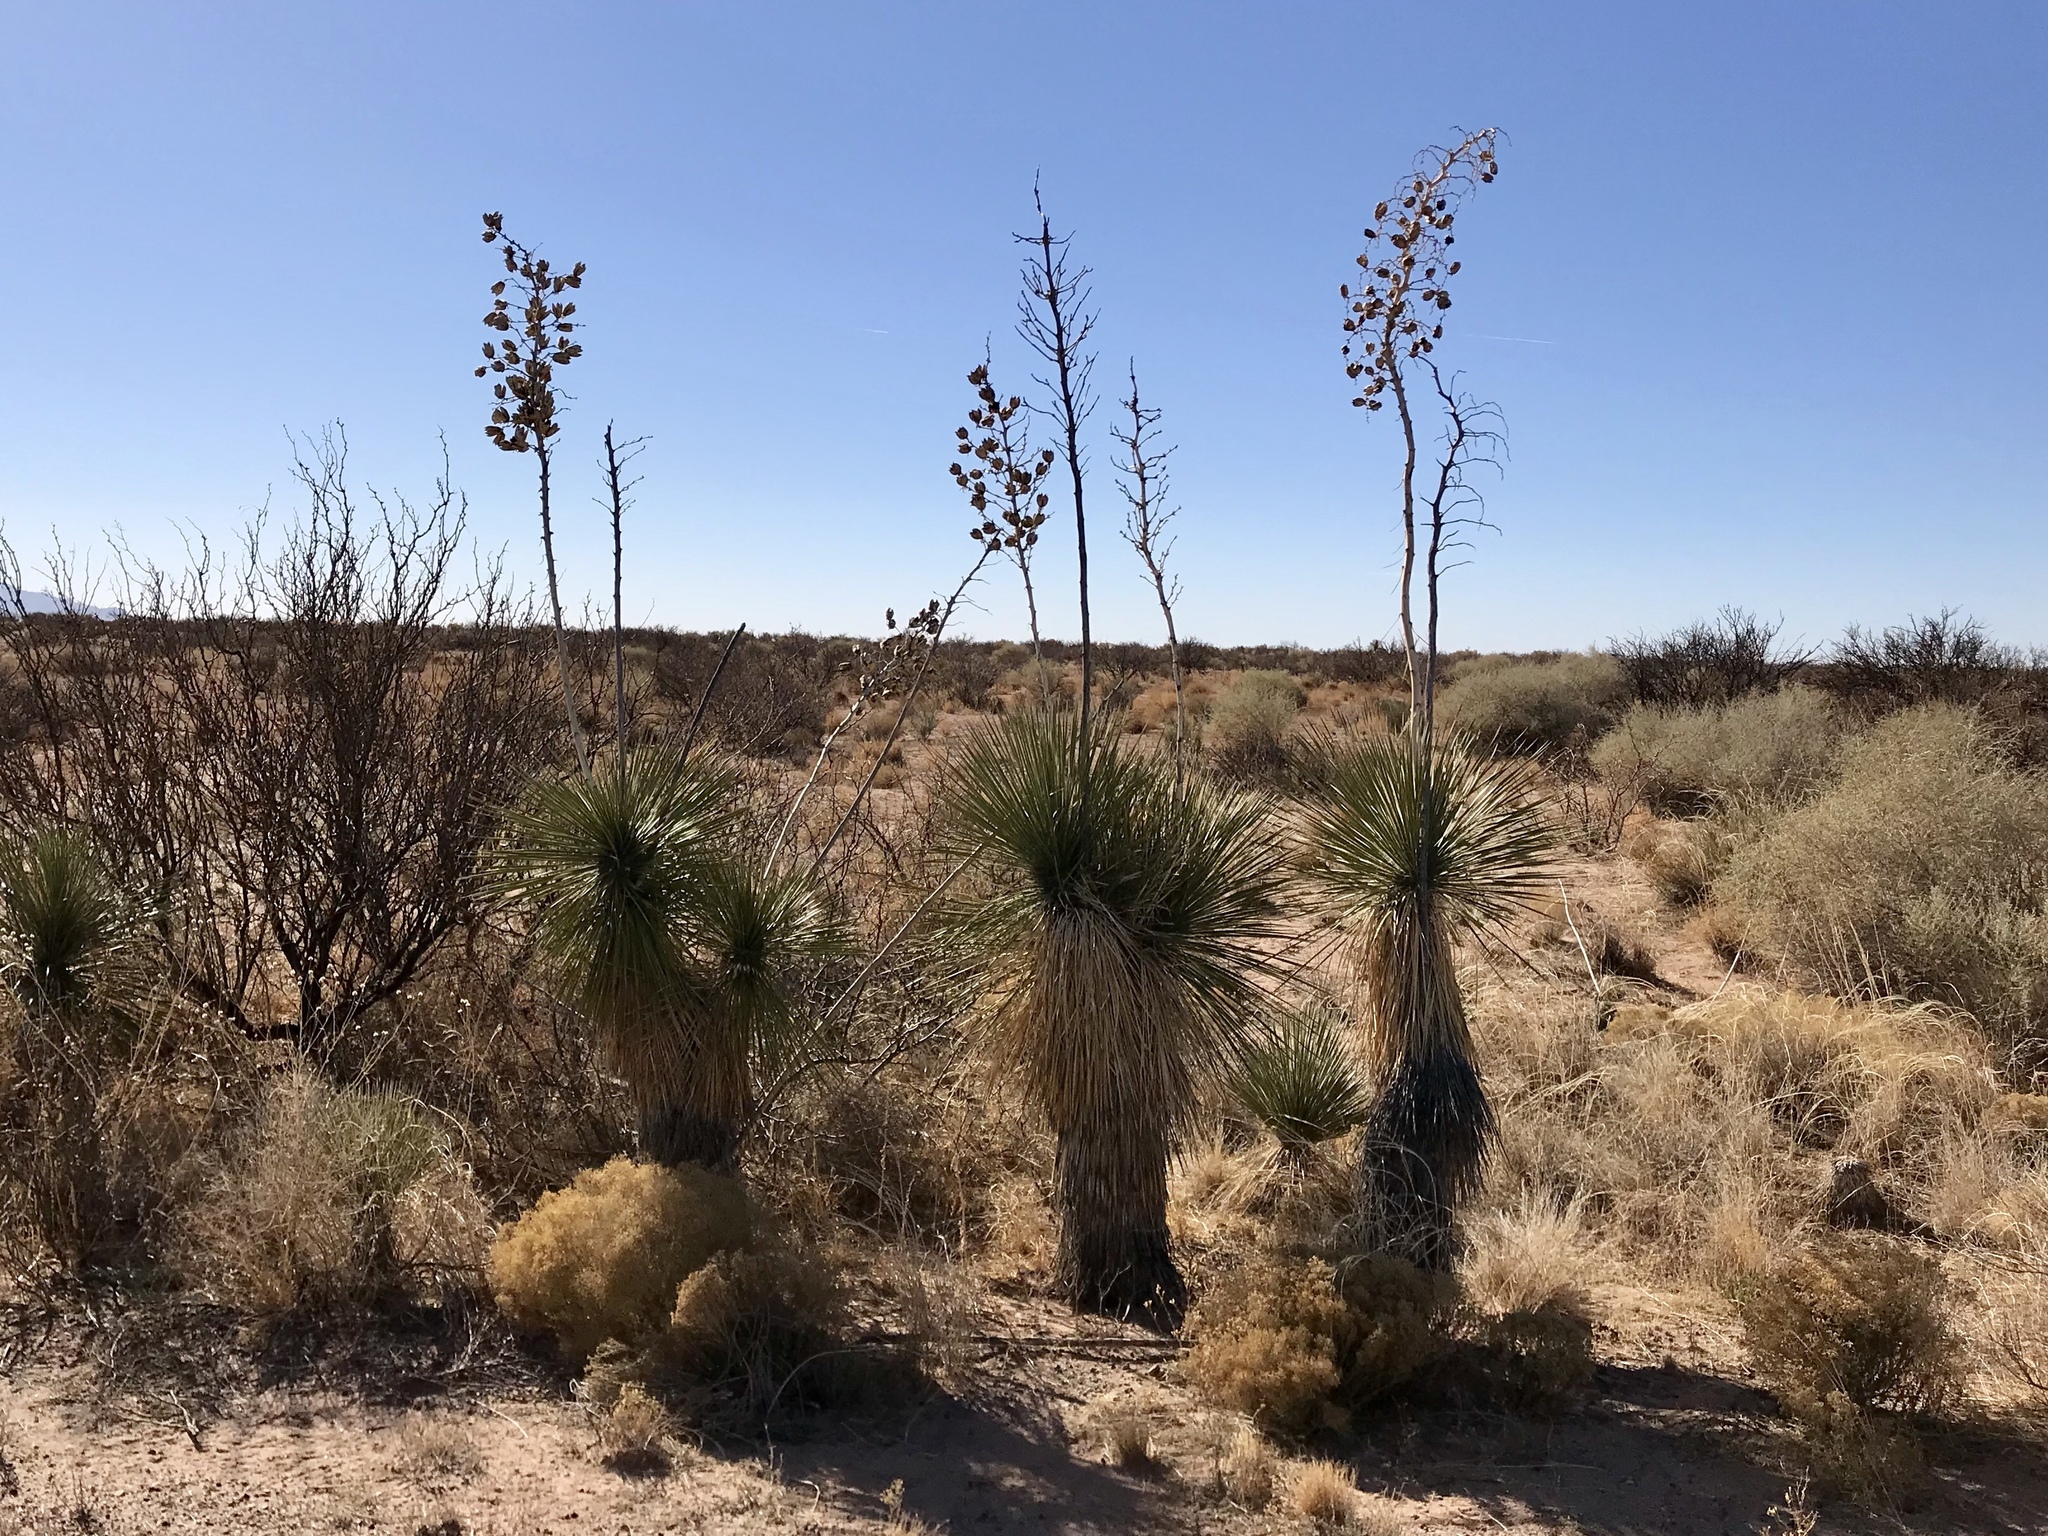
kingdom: Plantae
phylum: Tracheophyta
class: Liliopsida
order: Asparagales
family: Asparagaceae
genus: Yucca
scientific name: Yucca elata
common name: Palmella
